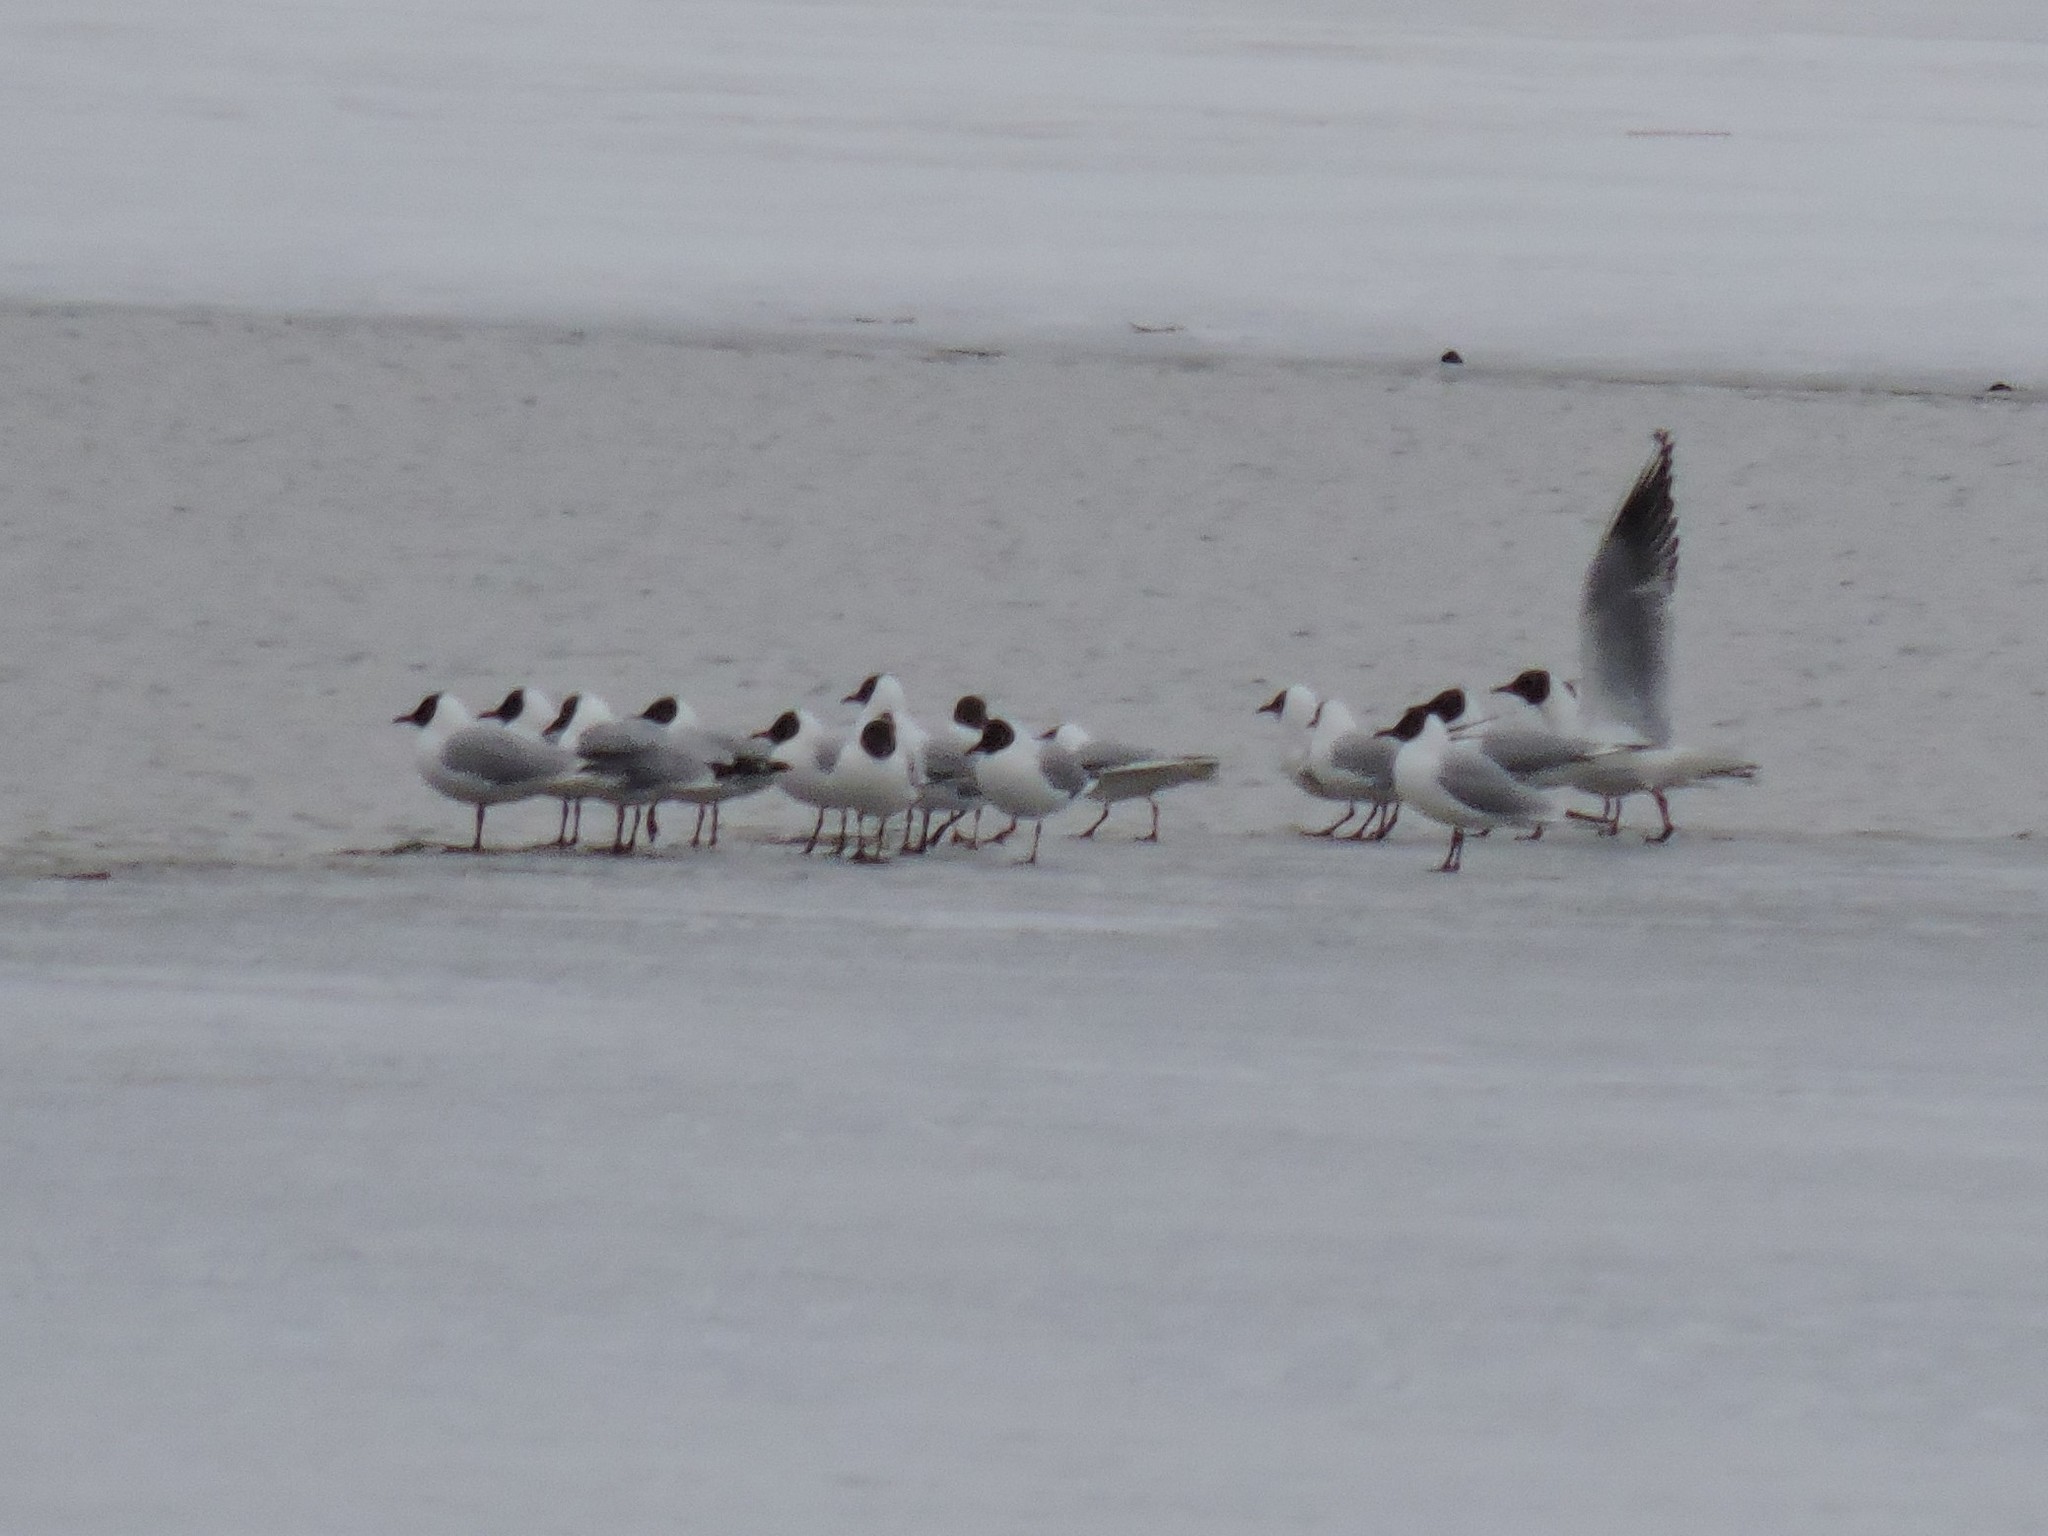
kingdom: Animalia
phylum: Chordata
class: Aves
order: Charadriiformes
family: Laridae
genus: Chroicocephalus
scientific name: Chroicocephalus ridibundus
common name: Black-headed gull
